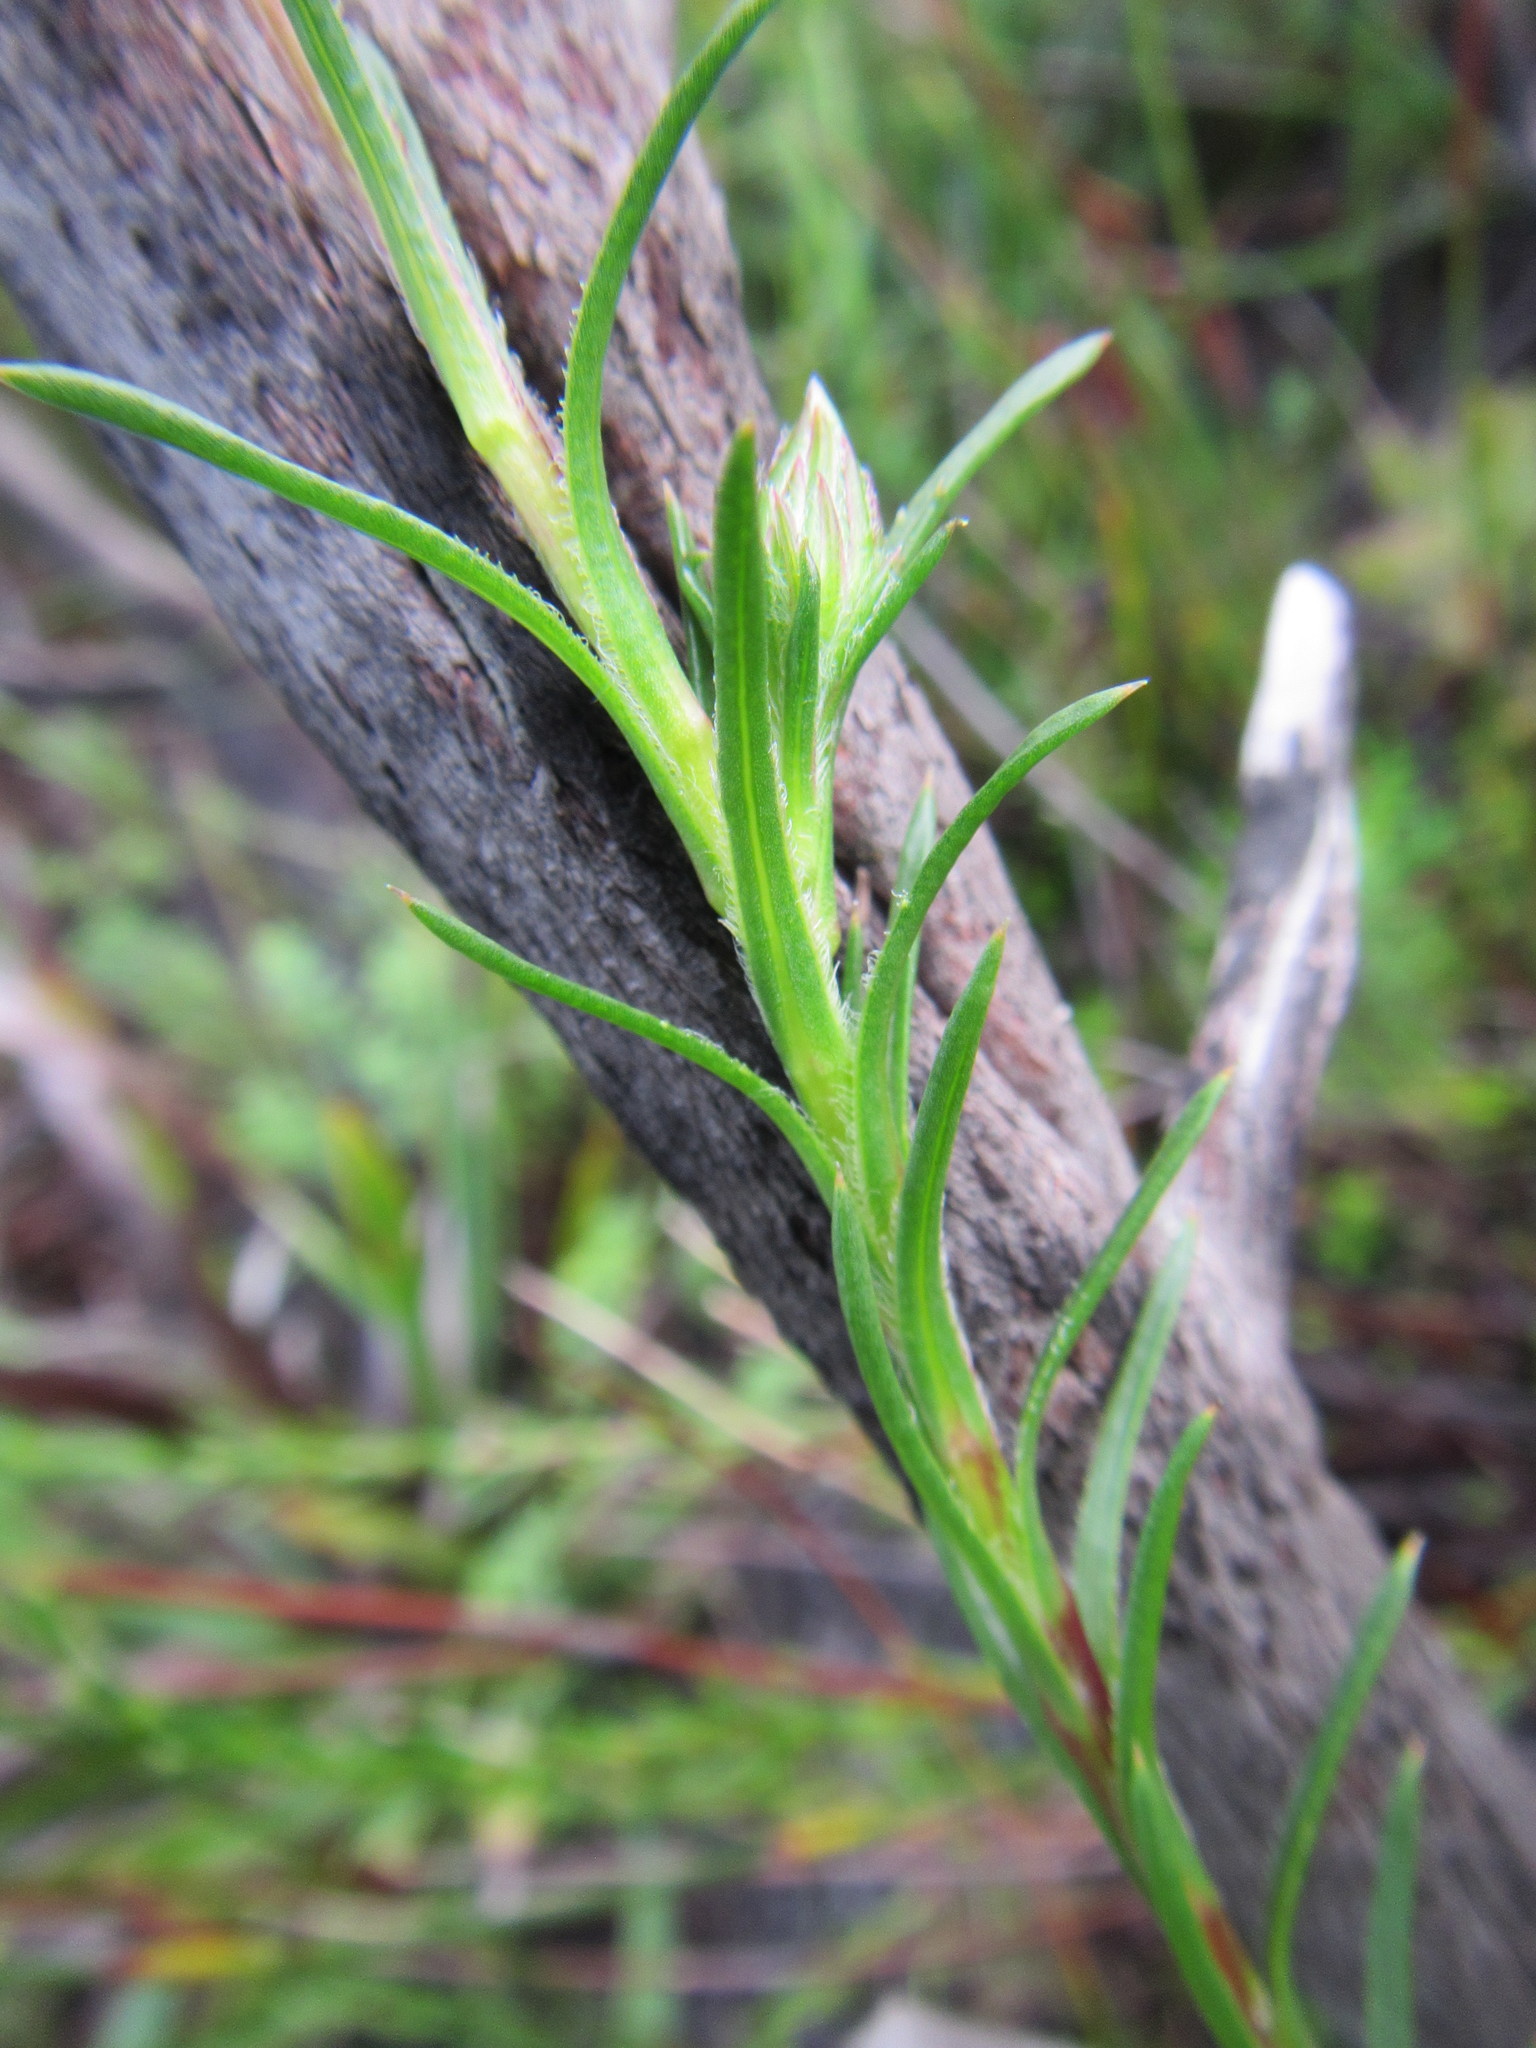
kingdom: Plantae
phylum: Tracheophyta
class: Magnoliopsida
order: Asterales
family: Asteraceae
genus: Zyrphelis
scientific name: Zyrphelis taxifolia
